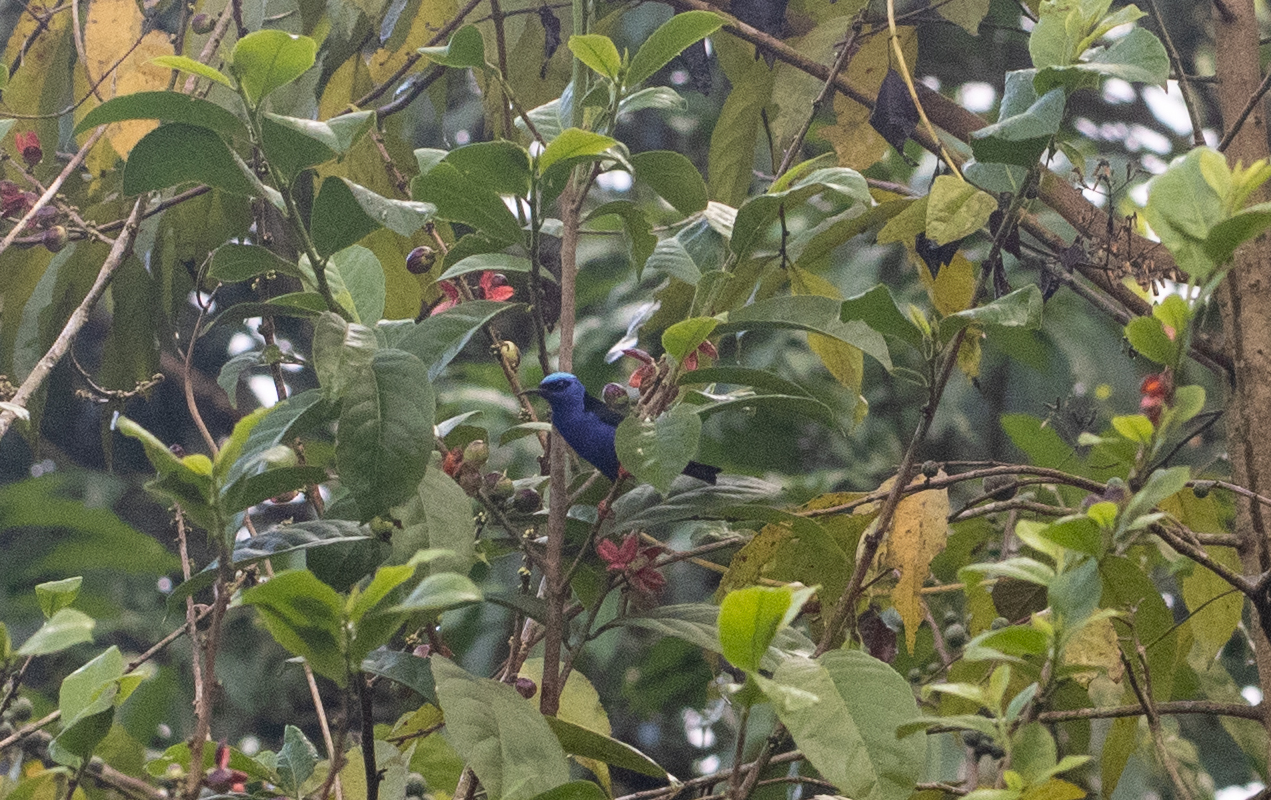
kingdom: Animalia
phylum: Chordata
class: Aves
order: Passeriformes
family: Thraupidae
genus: Cyanerpes
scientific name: Cyanerpes cyaneus
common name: Red-legged honeycreeper
